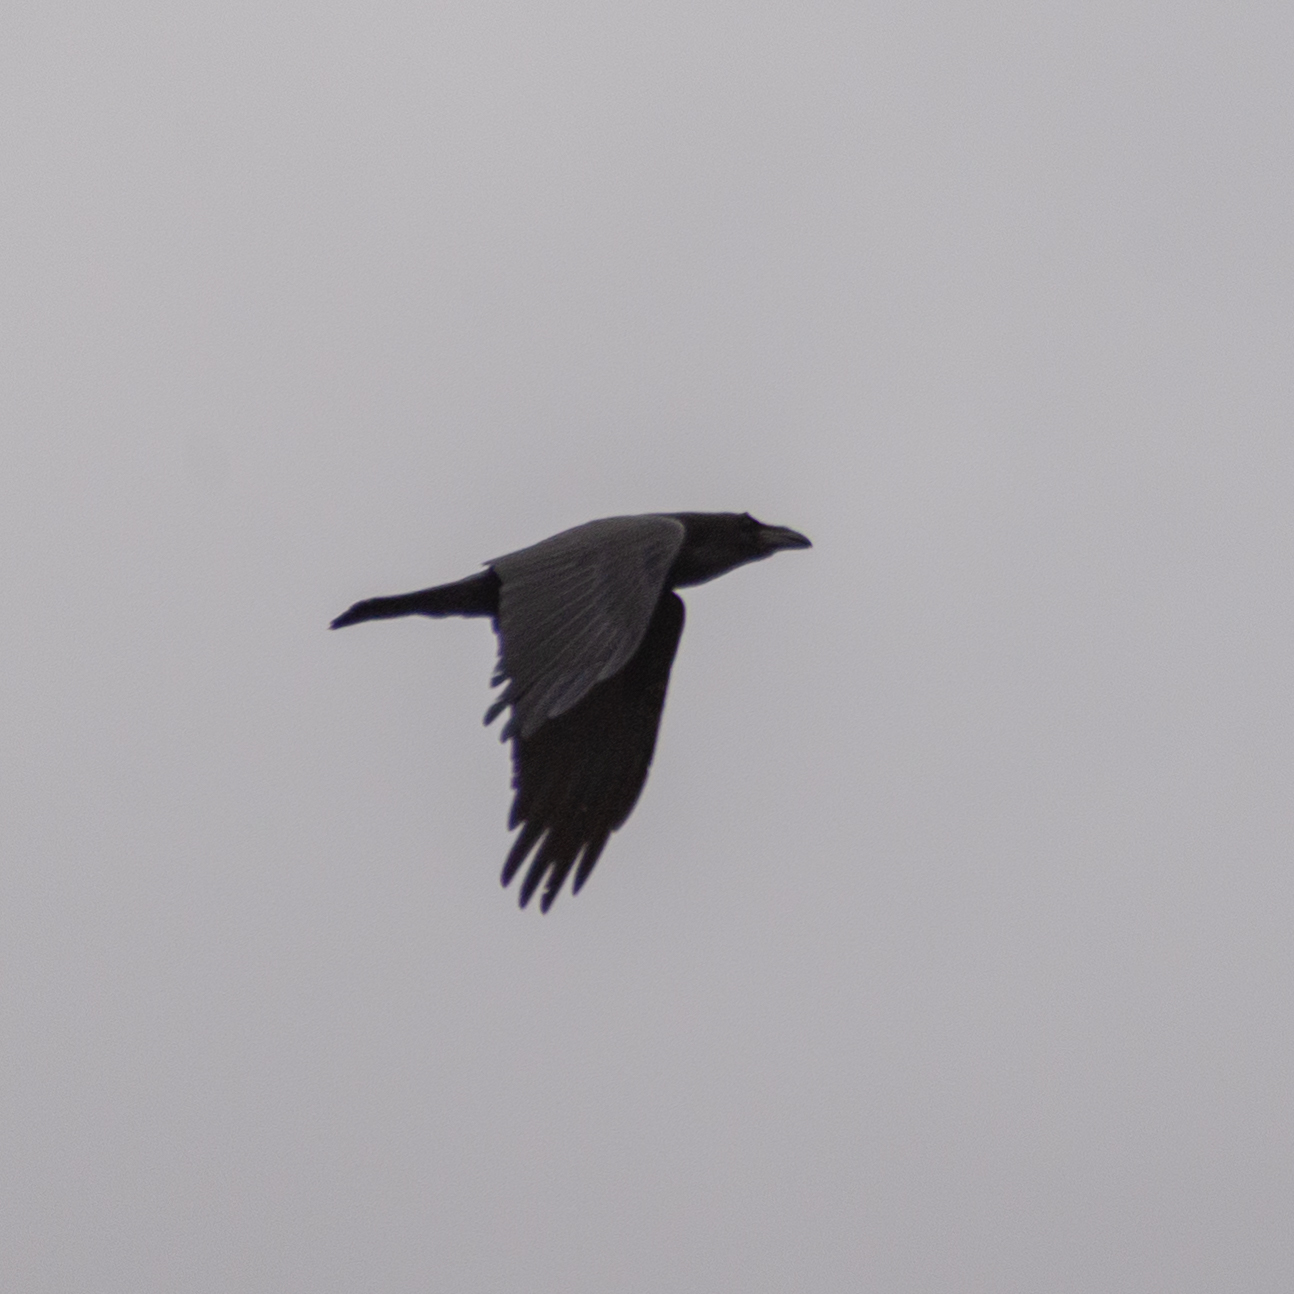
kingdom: Animalia
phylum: Chordata
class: Aves
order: Passeriformes
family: Corvidae
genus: Corvus
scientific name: Corvus corax
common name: Common raven
